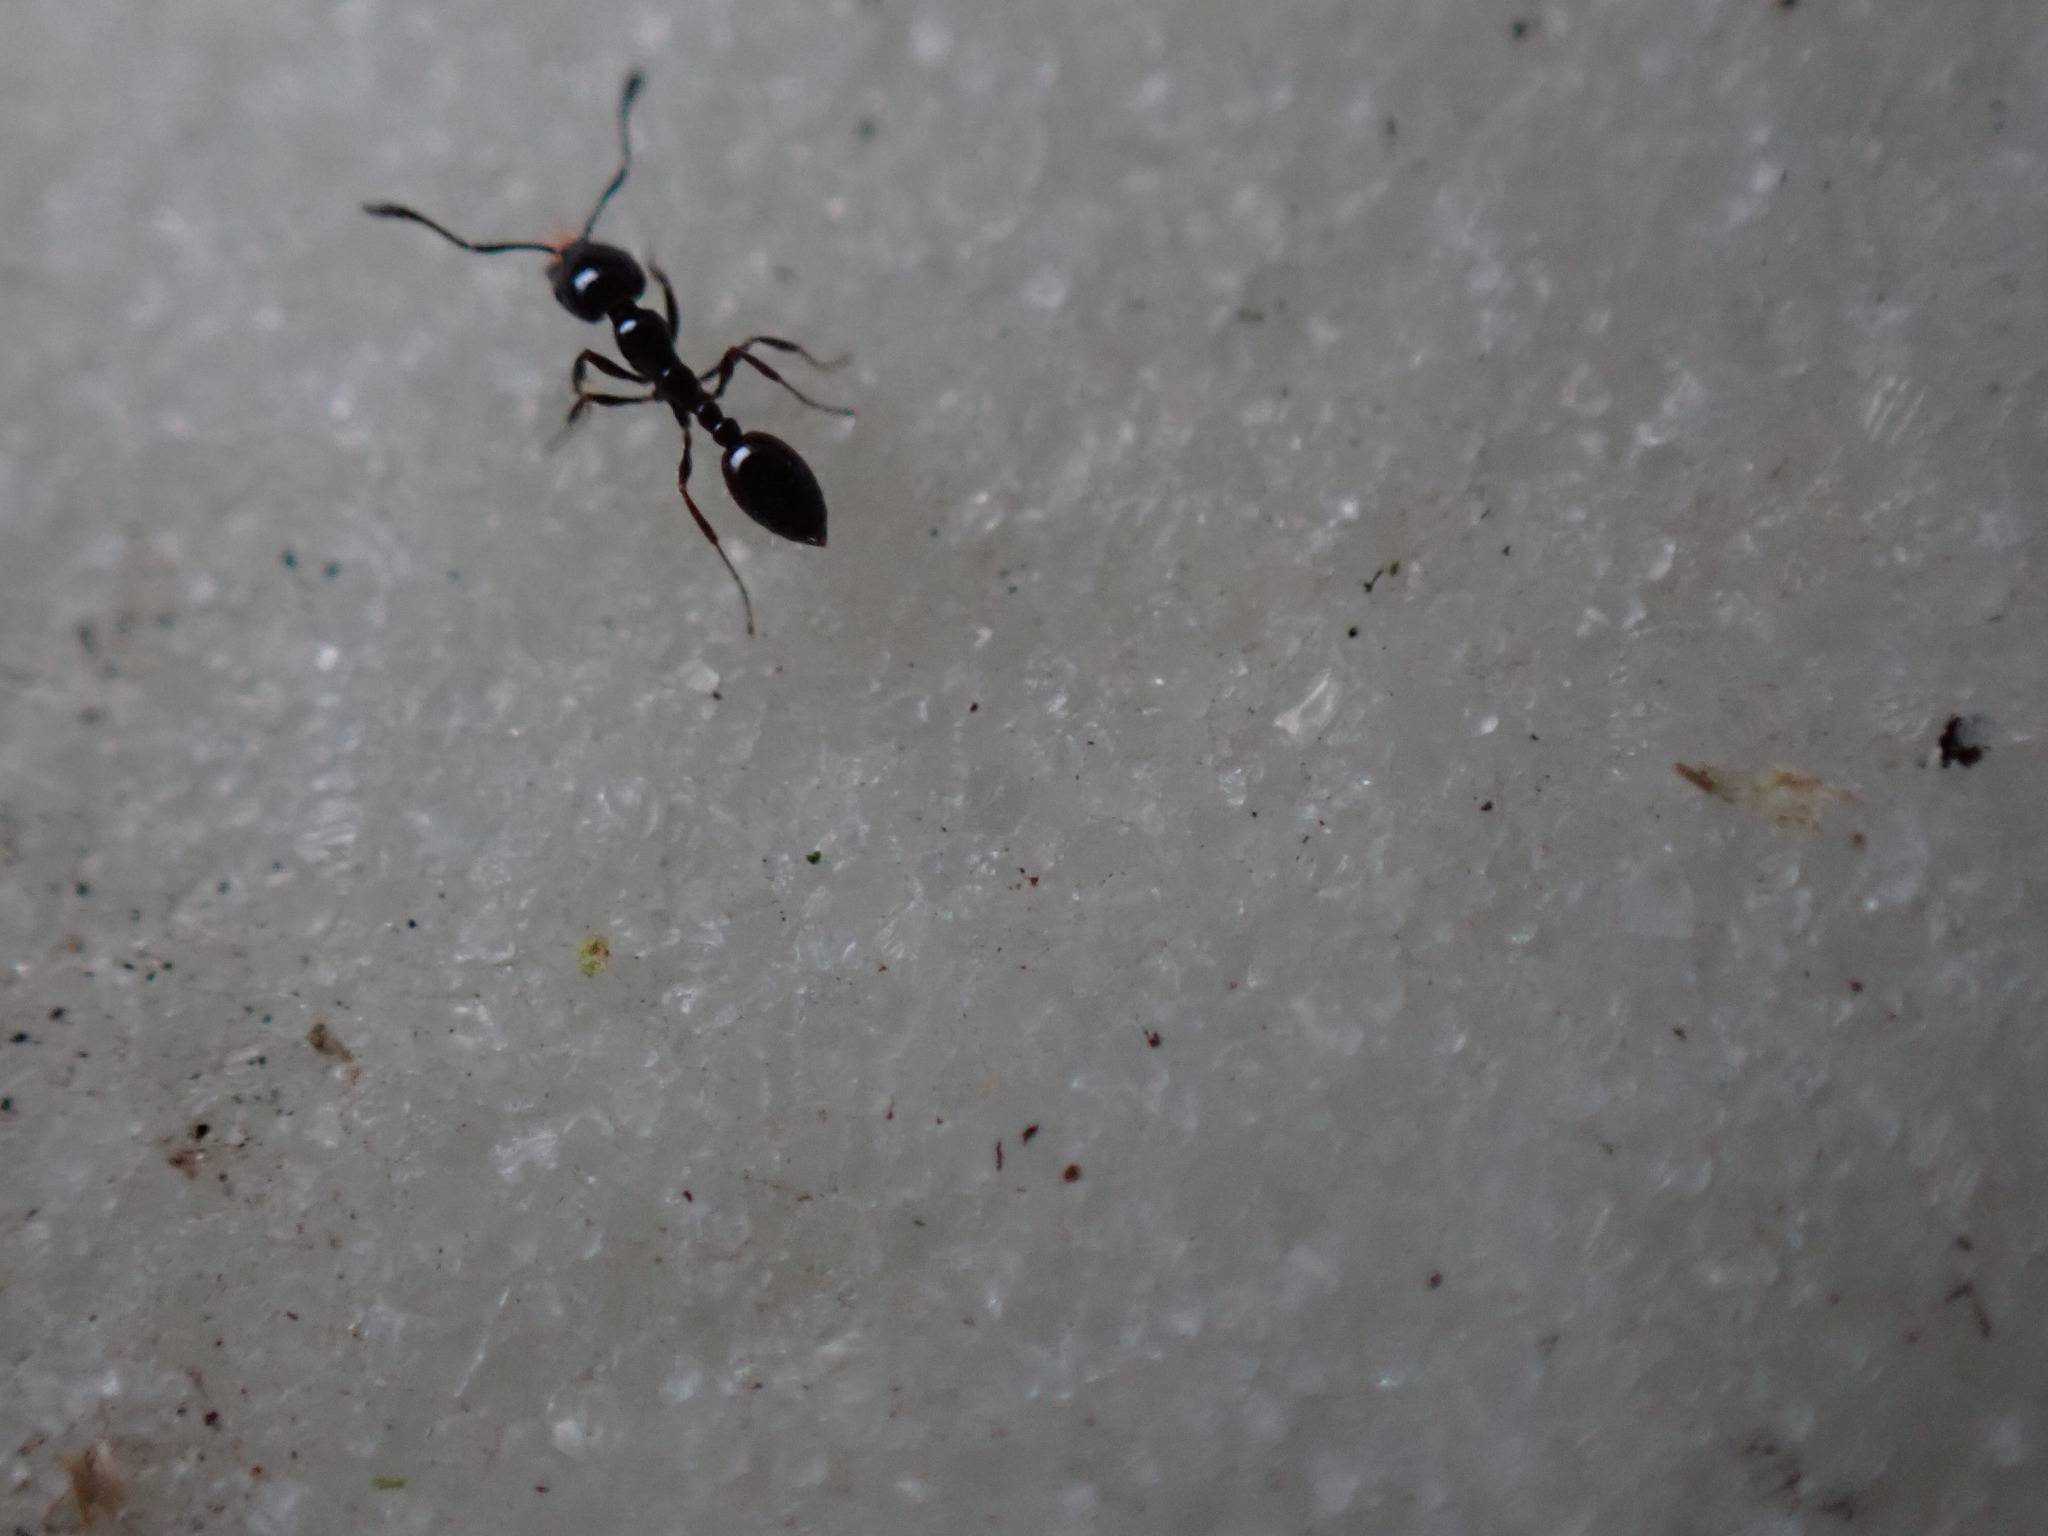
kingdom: Animalia
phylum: Arthropoda
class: Insecta
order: Hymenoptera
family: Formicidae
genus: Monomorium
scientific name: Monomorium
